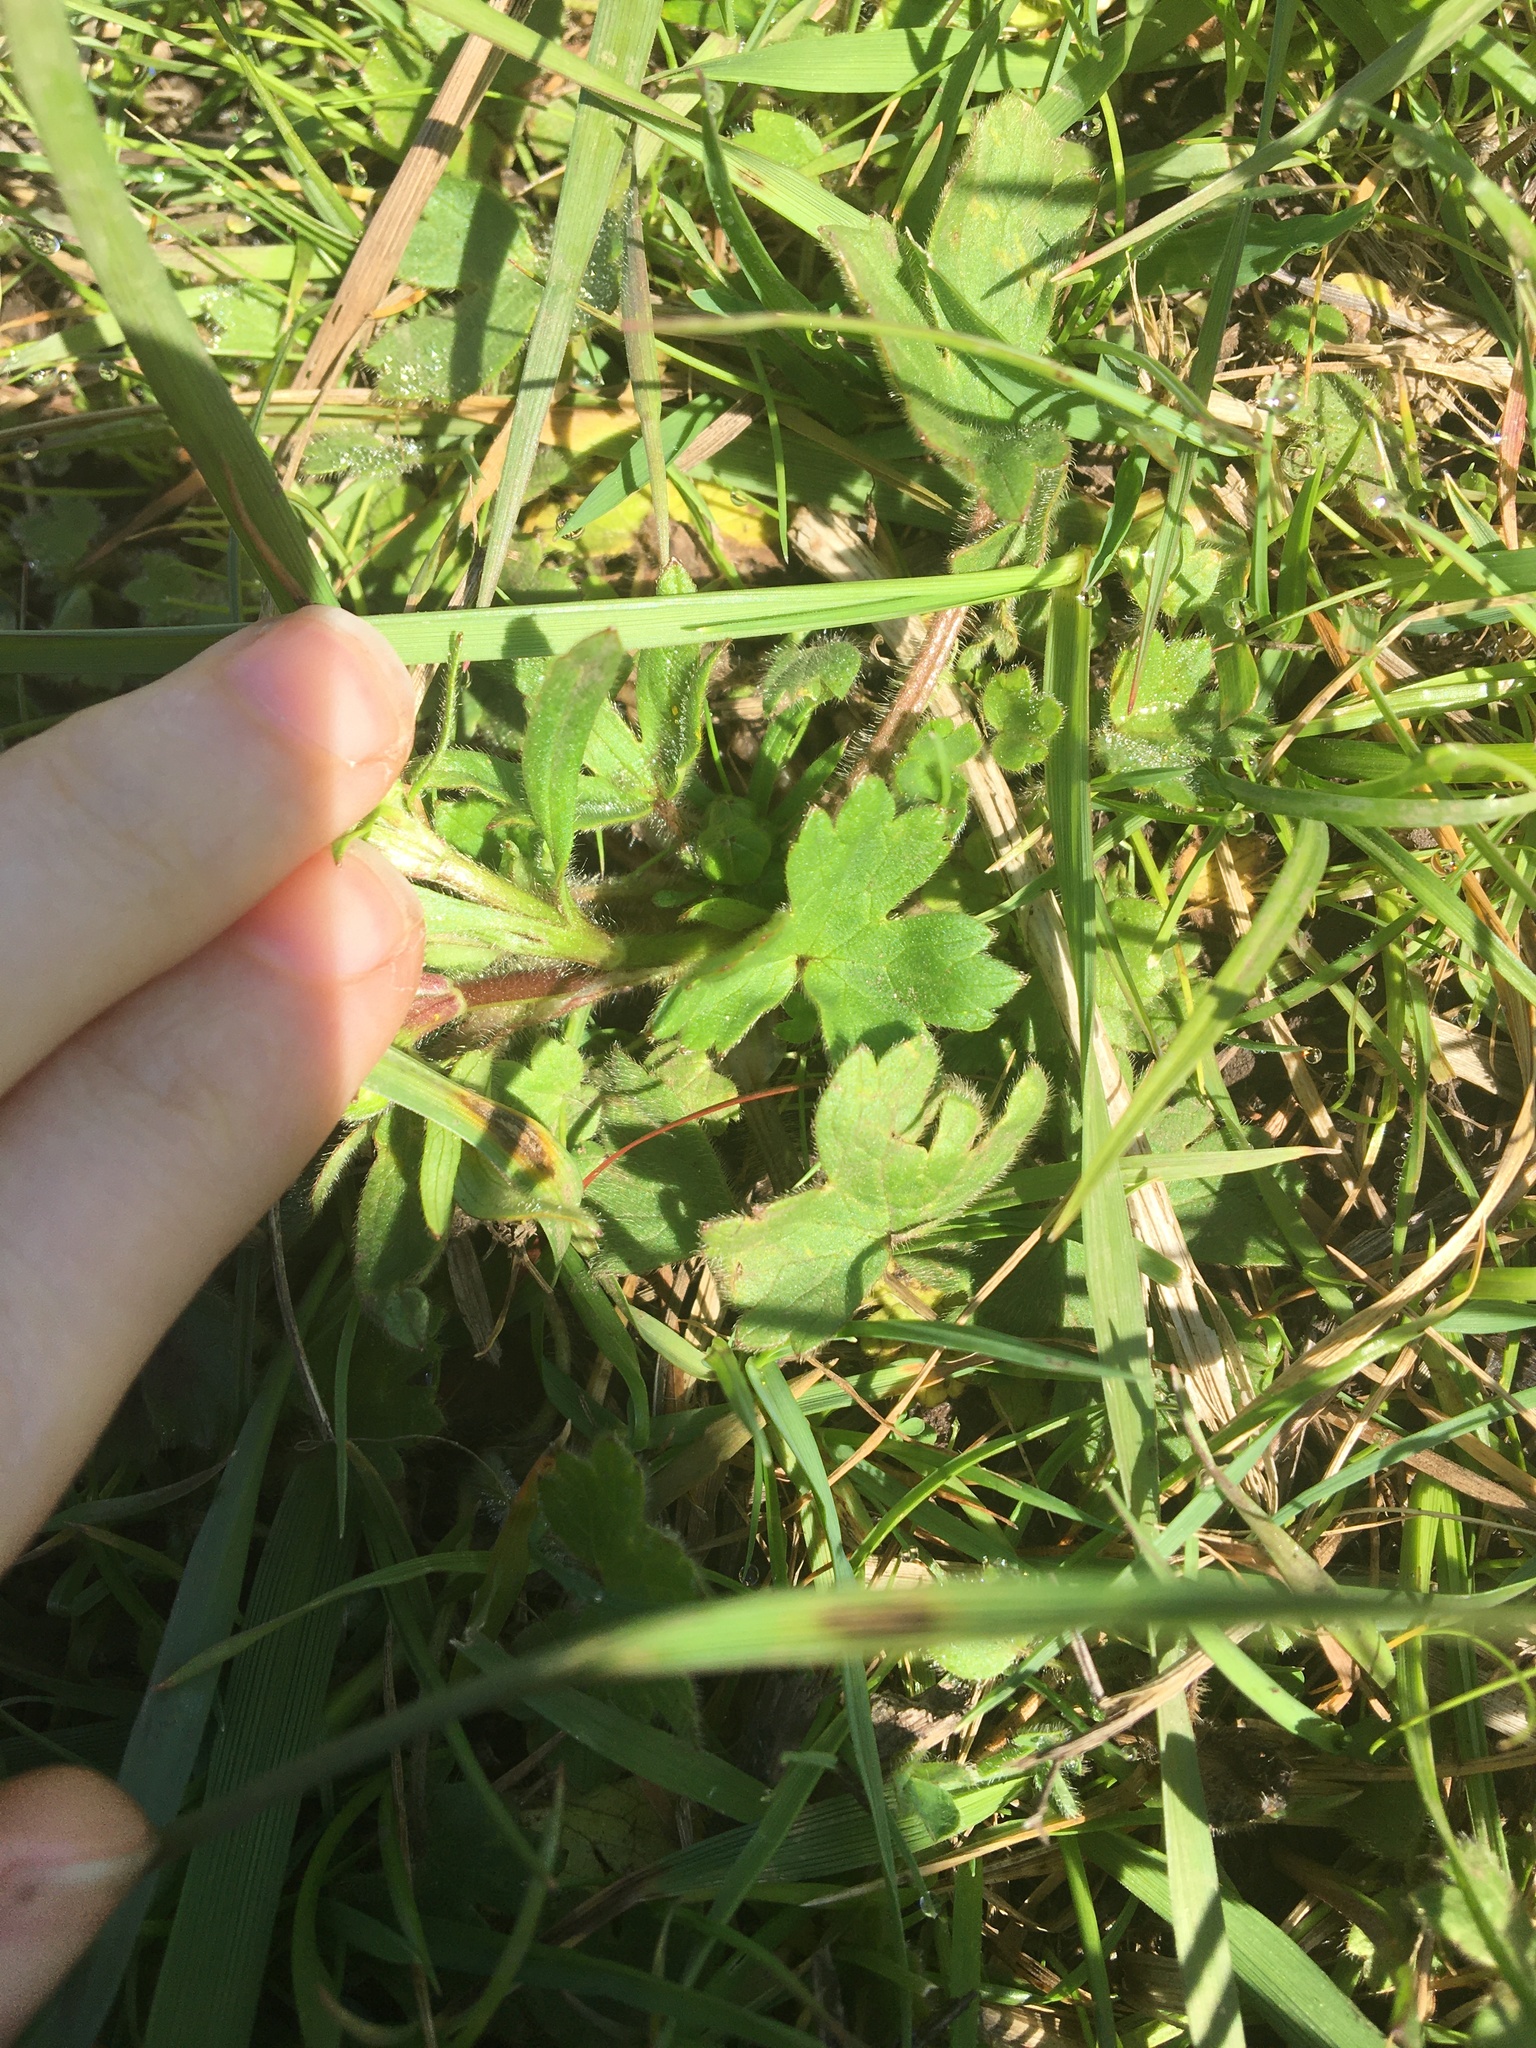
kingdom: Plantae
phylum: Tracheophyta
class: Magnoliopsida
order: Ranunculales
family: Ranunculaceae
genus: Ranunculus
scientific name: Ranunculus occidentalis
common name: Western buttercup
